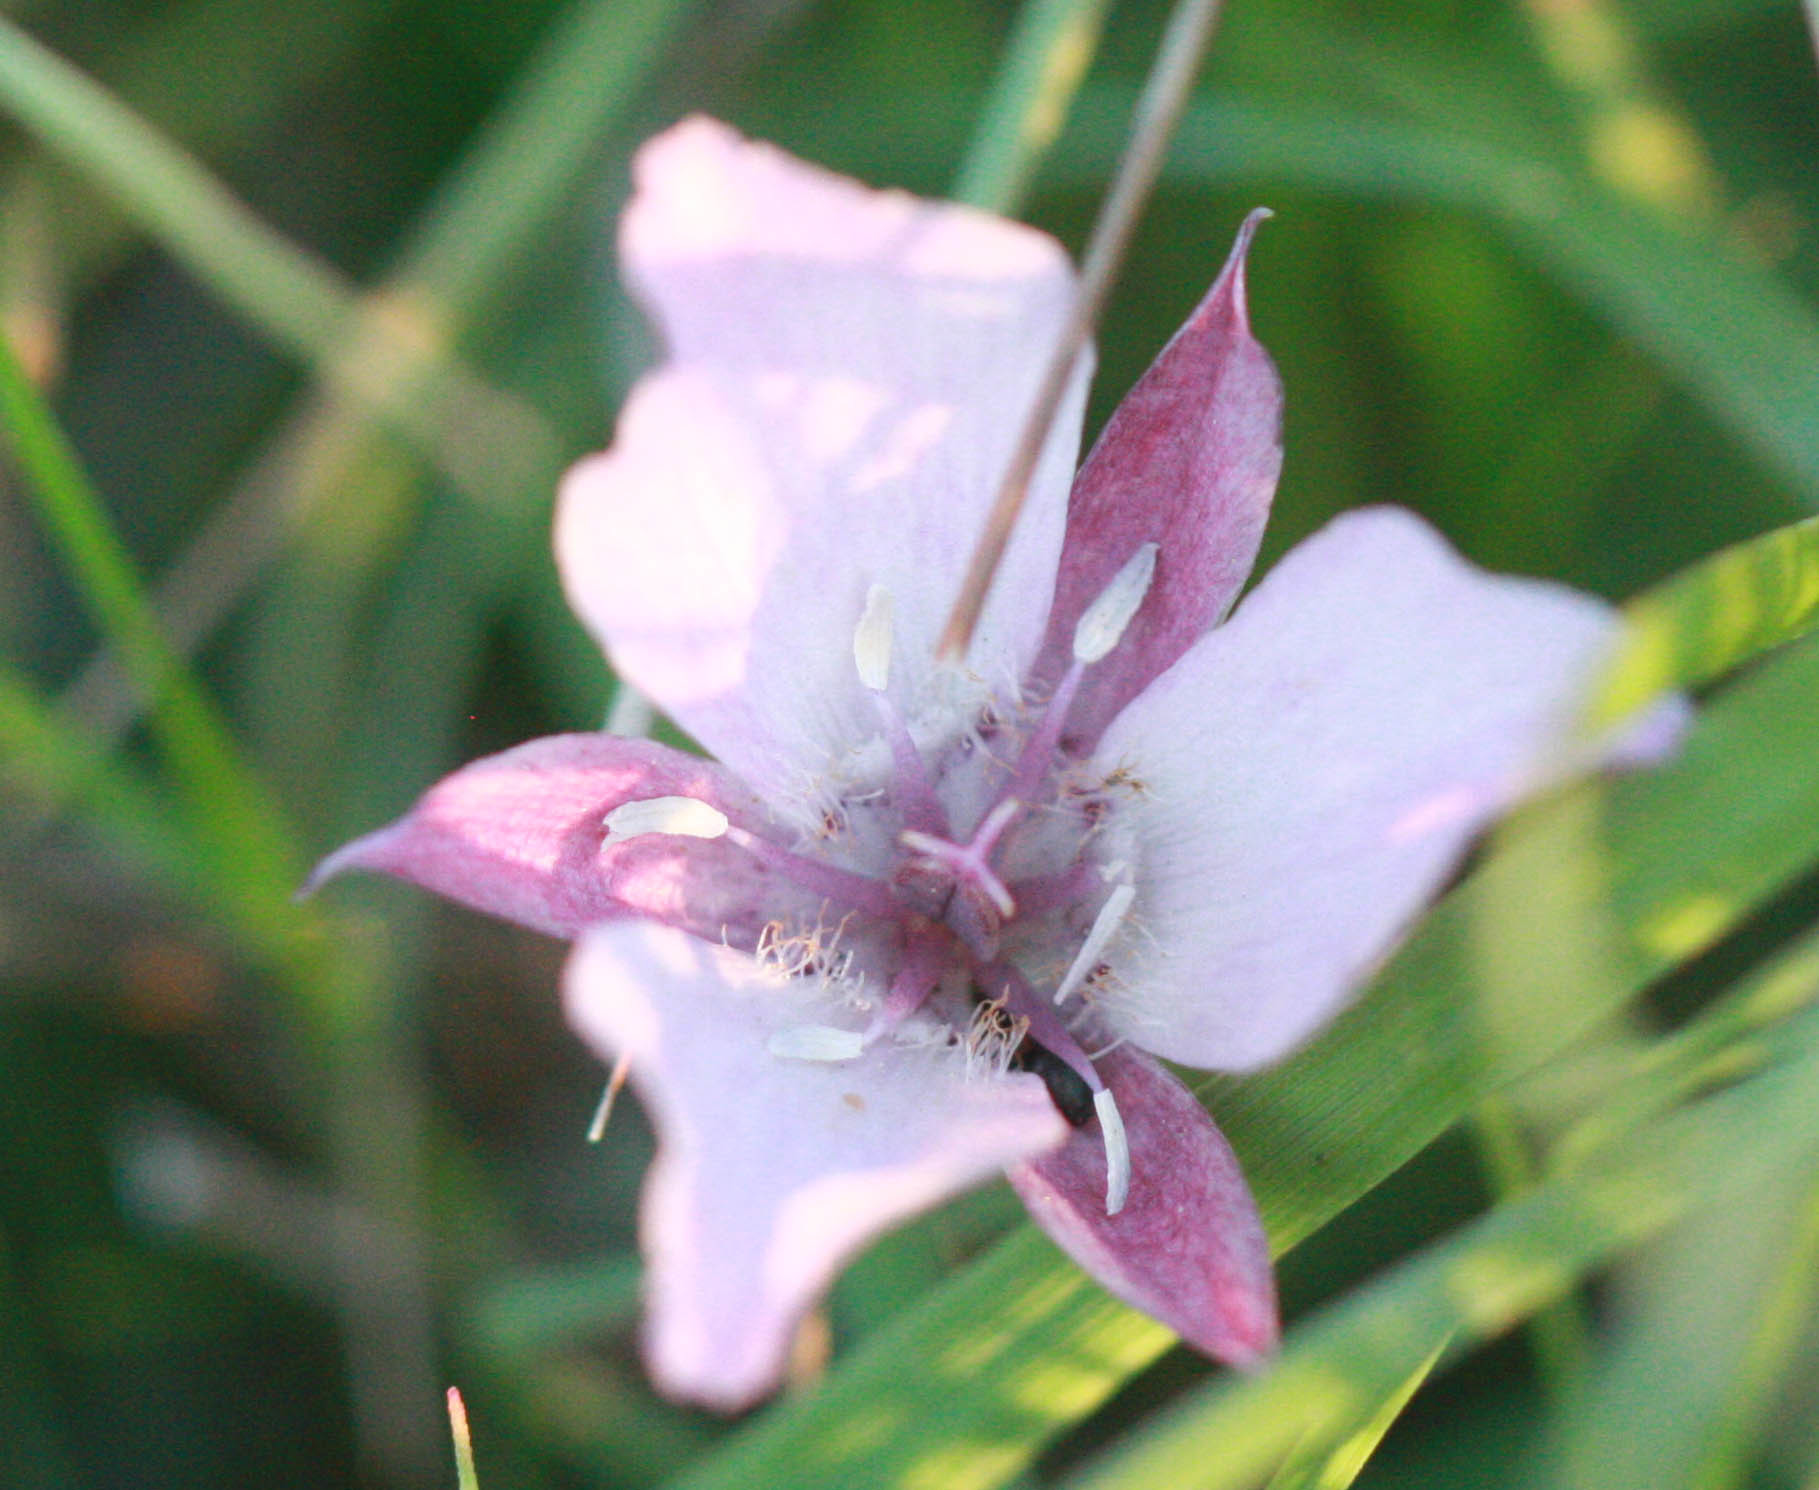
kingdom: Plantae
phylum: Tracheophyta
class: Liliopsida
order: Liliales
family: Liliaceae
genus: Calochortus
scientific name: Calochortus umbellatus
